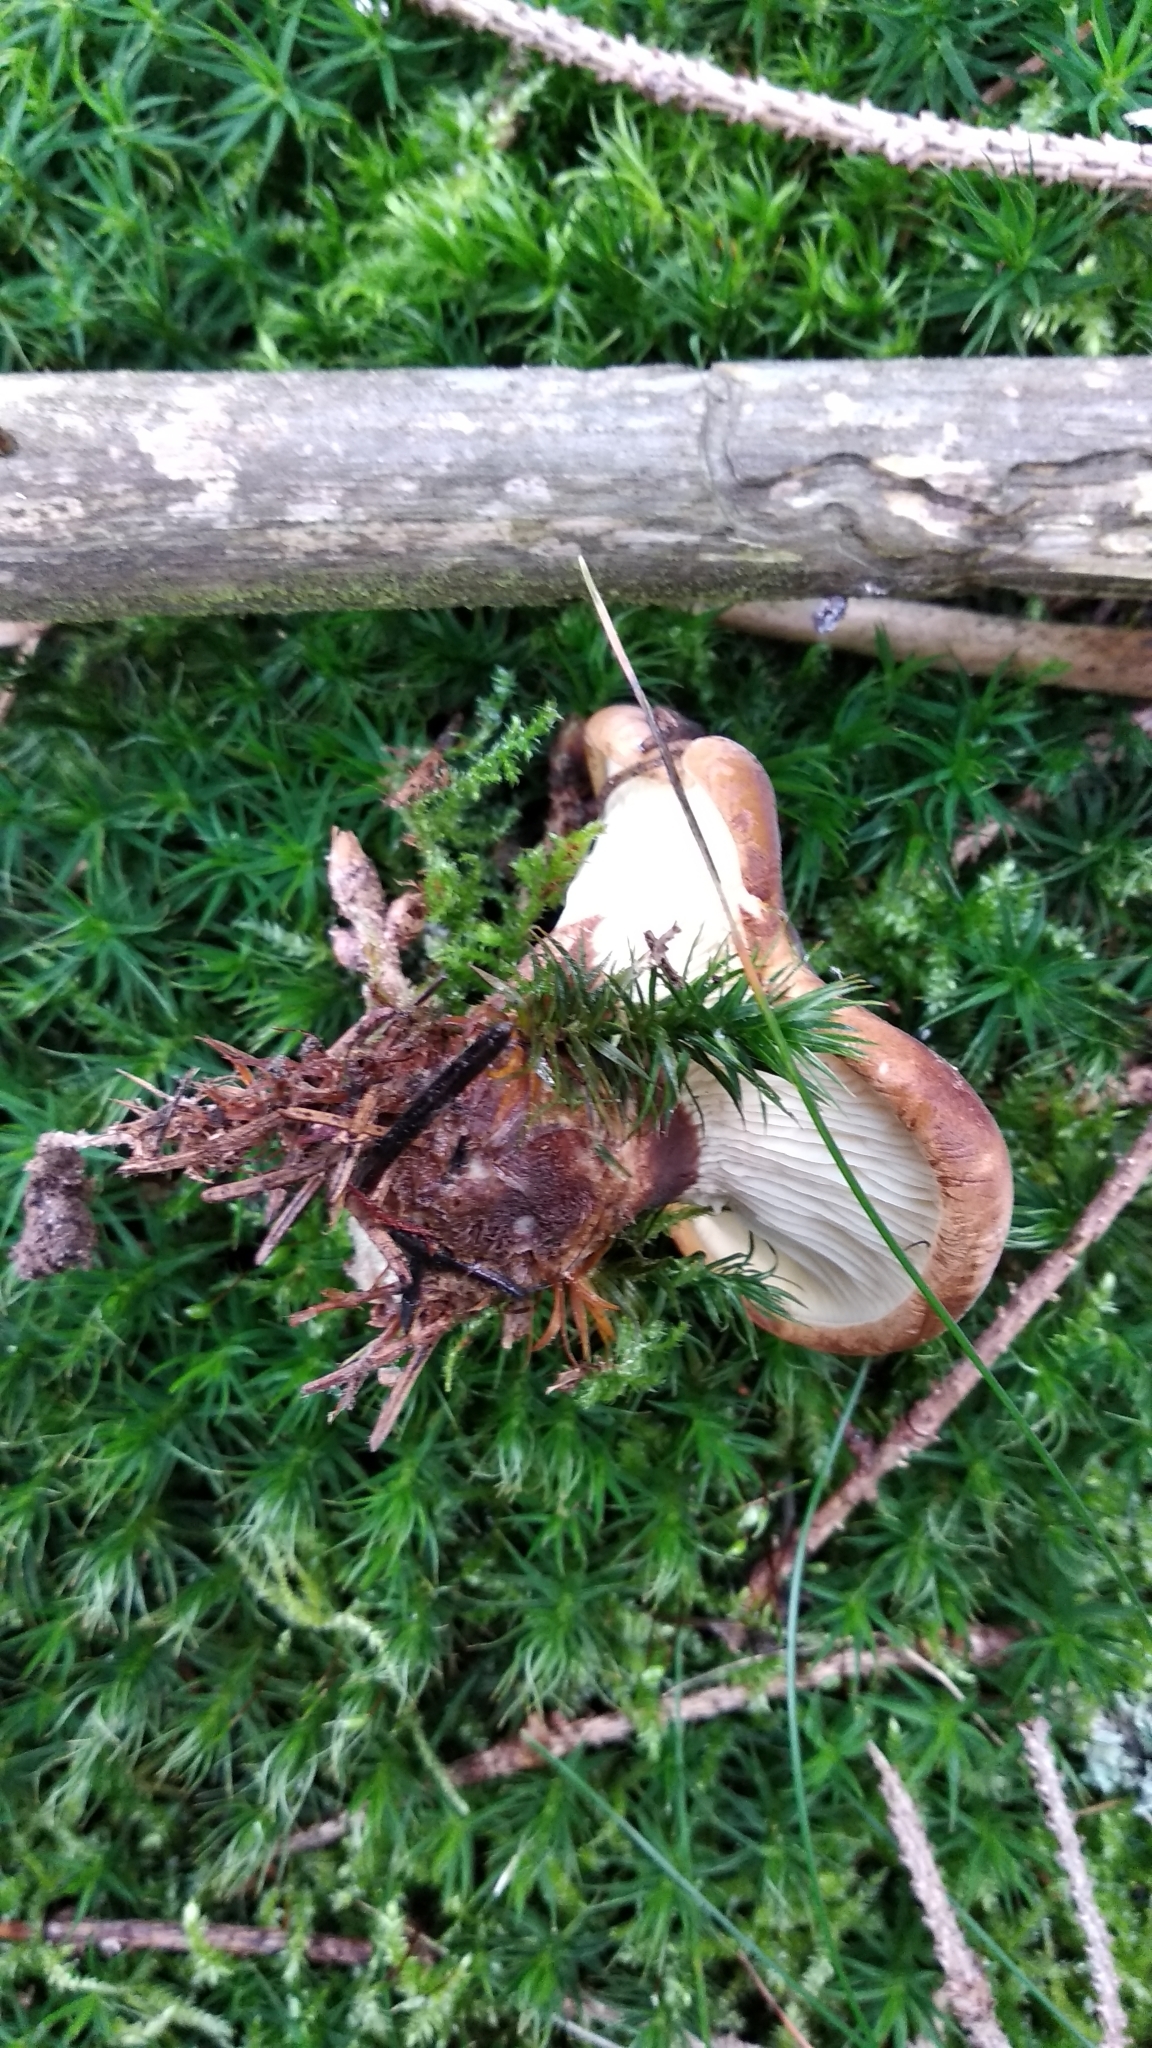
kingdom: Fungi
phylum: Basidiomycota
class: Agaricomycetes
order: Boletales
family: Tapinellaceae
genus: Tapinella
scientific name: Tapinella atrotomentosa
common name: Velvet rollrim
